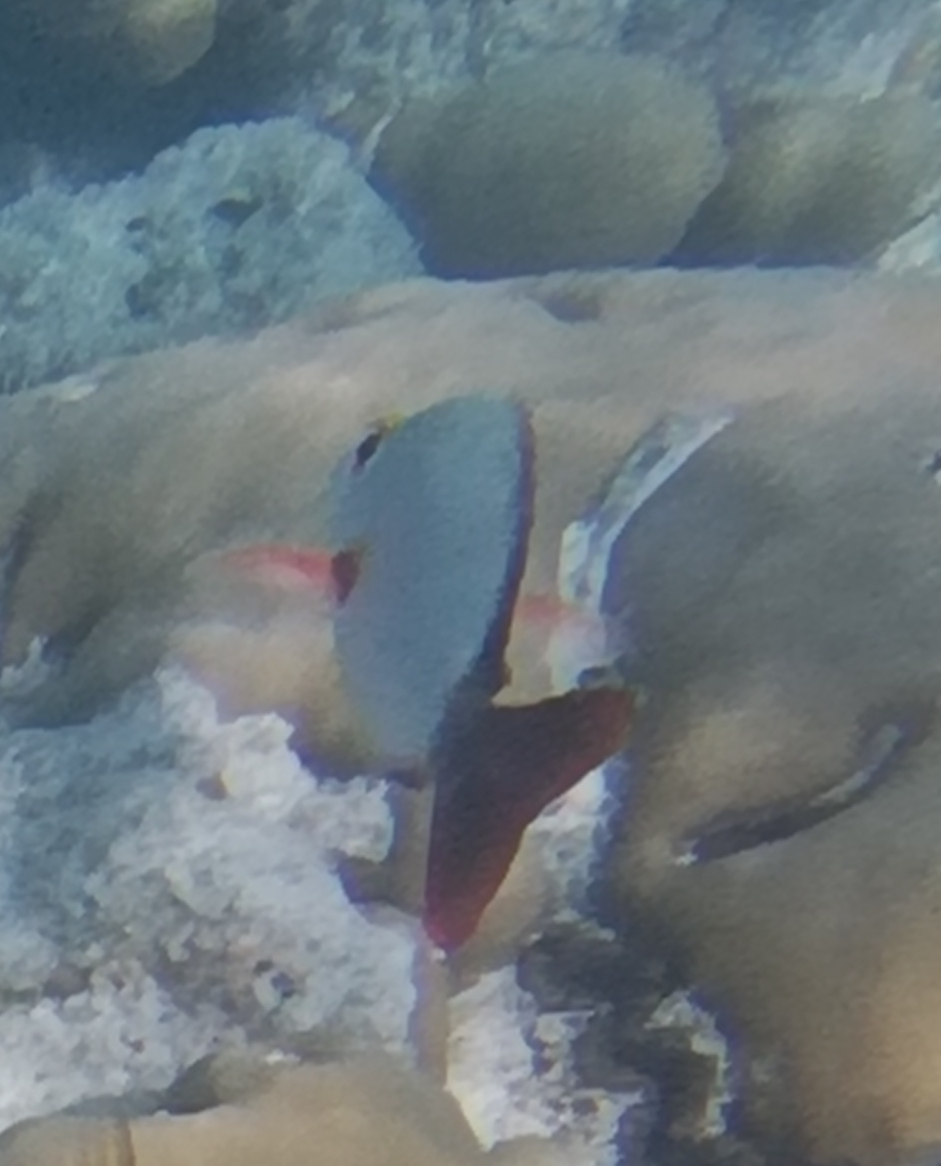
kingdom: Animalia
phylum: Chordata
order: Perciformes
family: Lutjanidae
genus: Lutjanus
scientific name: Lutjanus gibbus
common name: Humpback snapper
